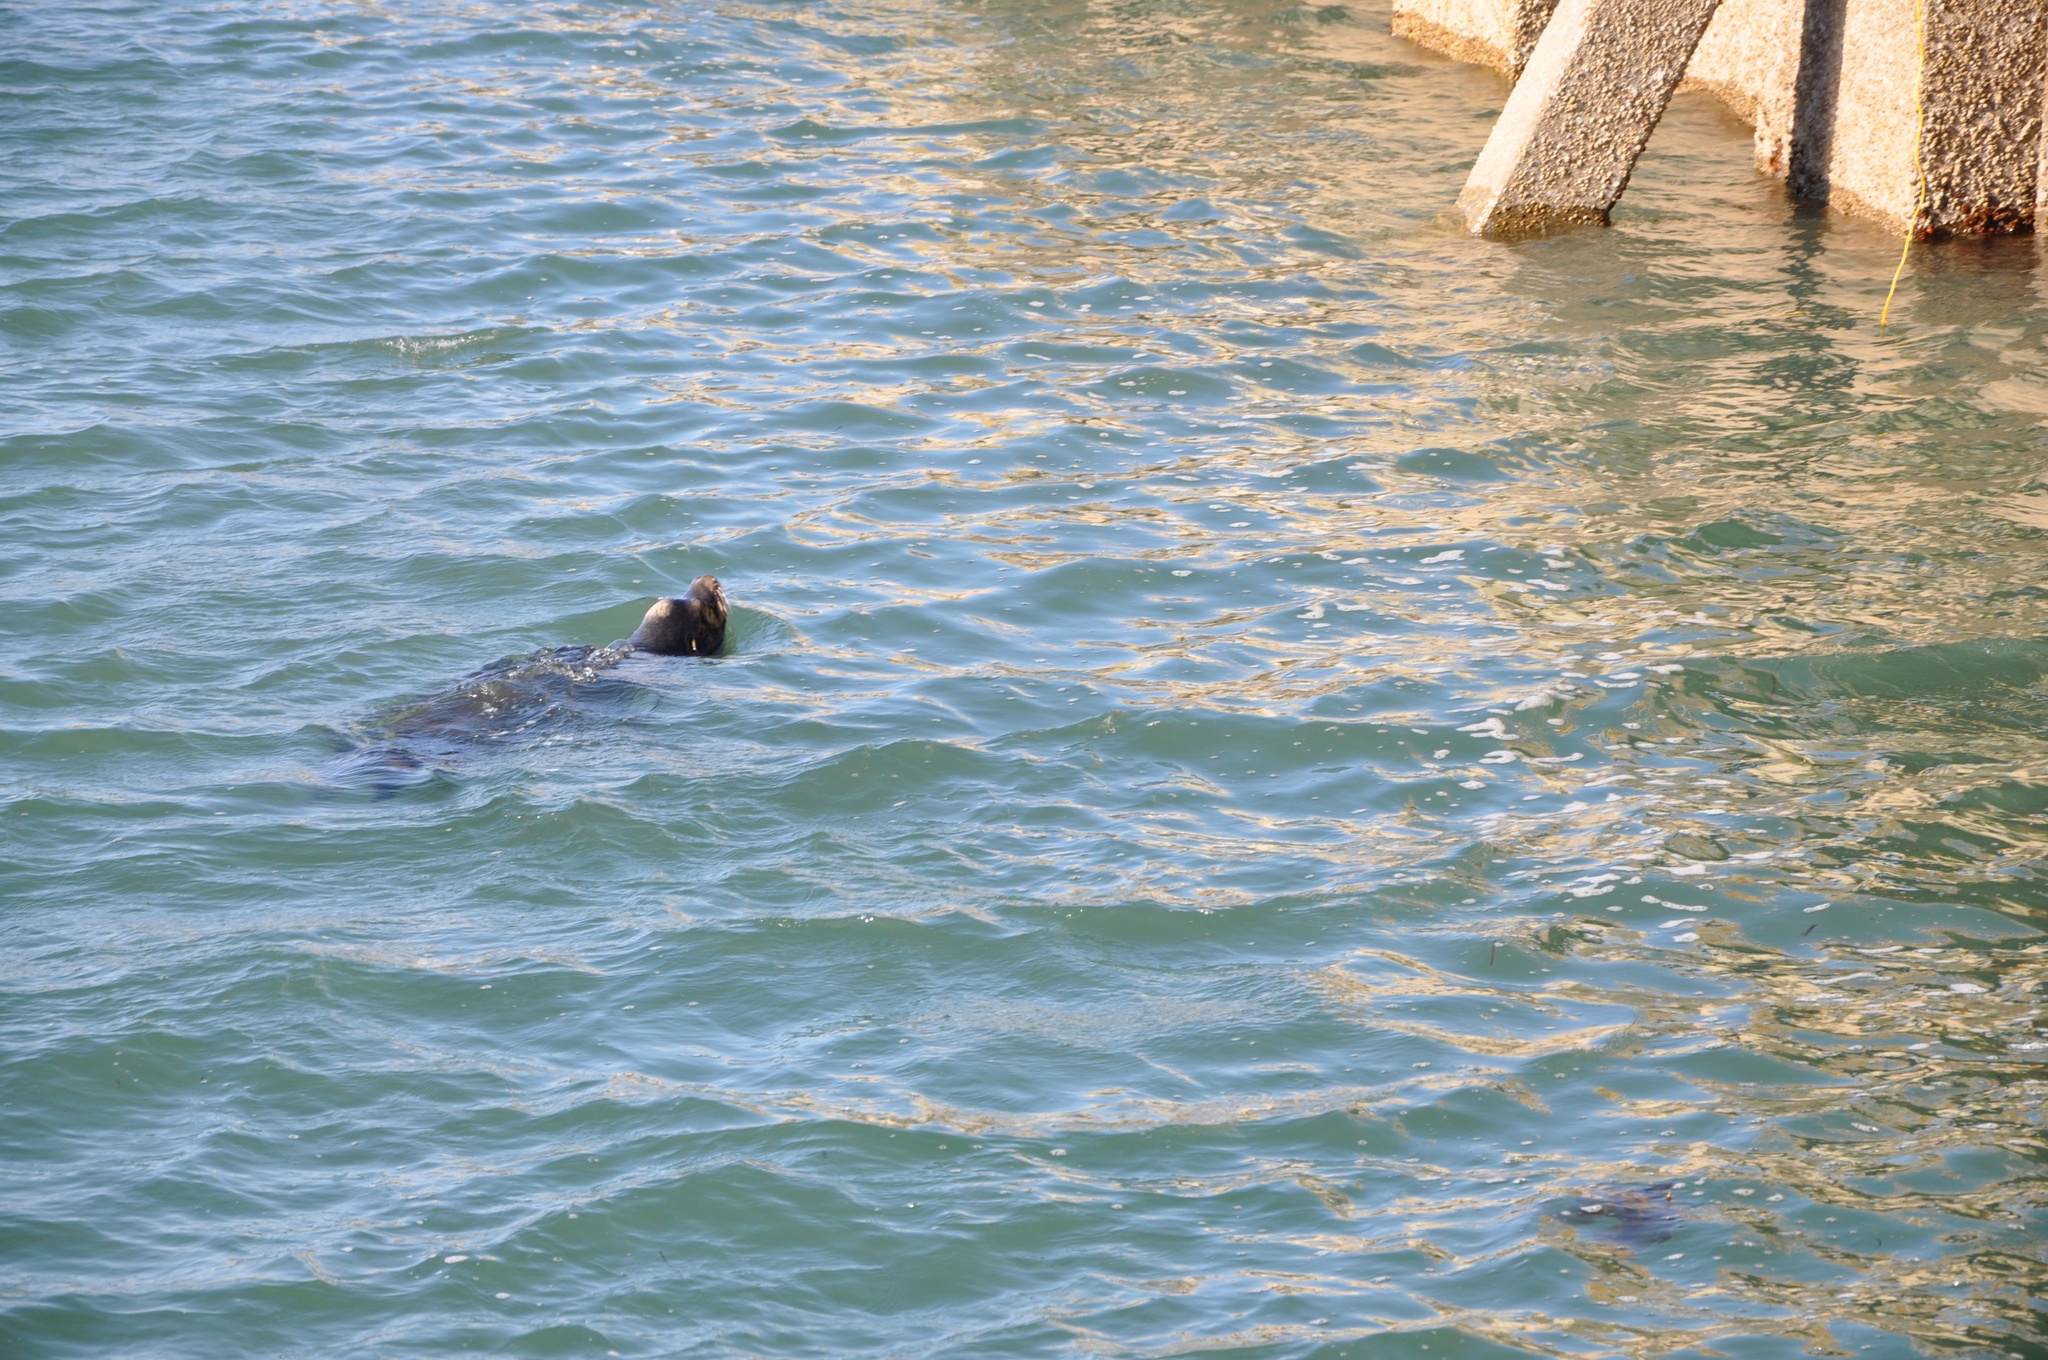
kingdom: Animalia
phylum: Chordata
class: Mammalia
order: Carnivora
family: Otariidae
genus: Zalophus
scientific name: Zalophus californianus
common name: California sea lion
